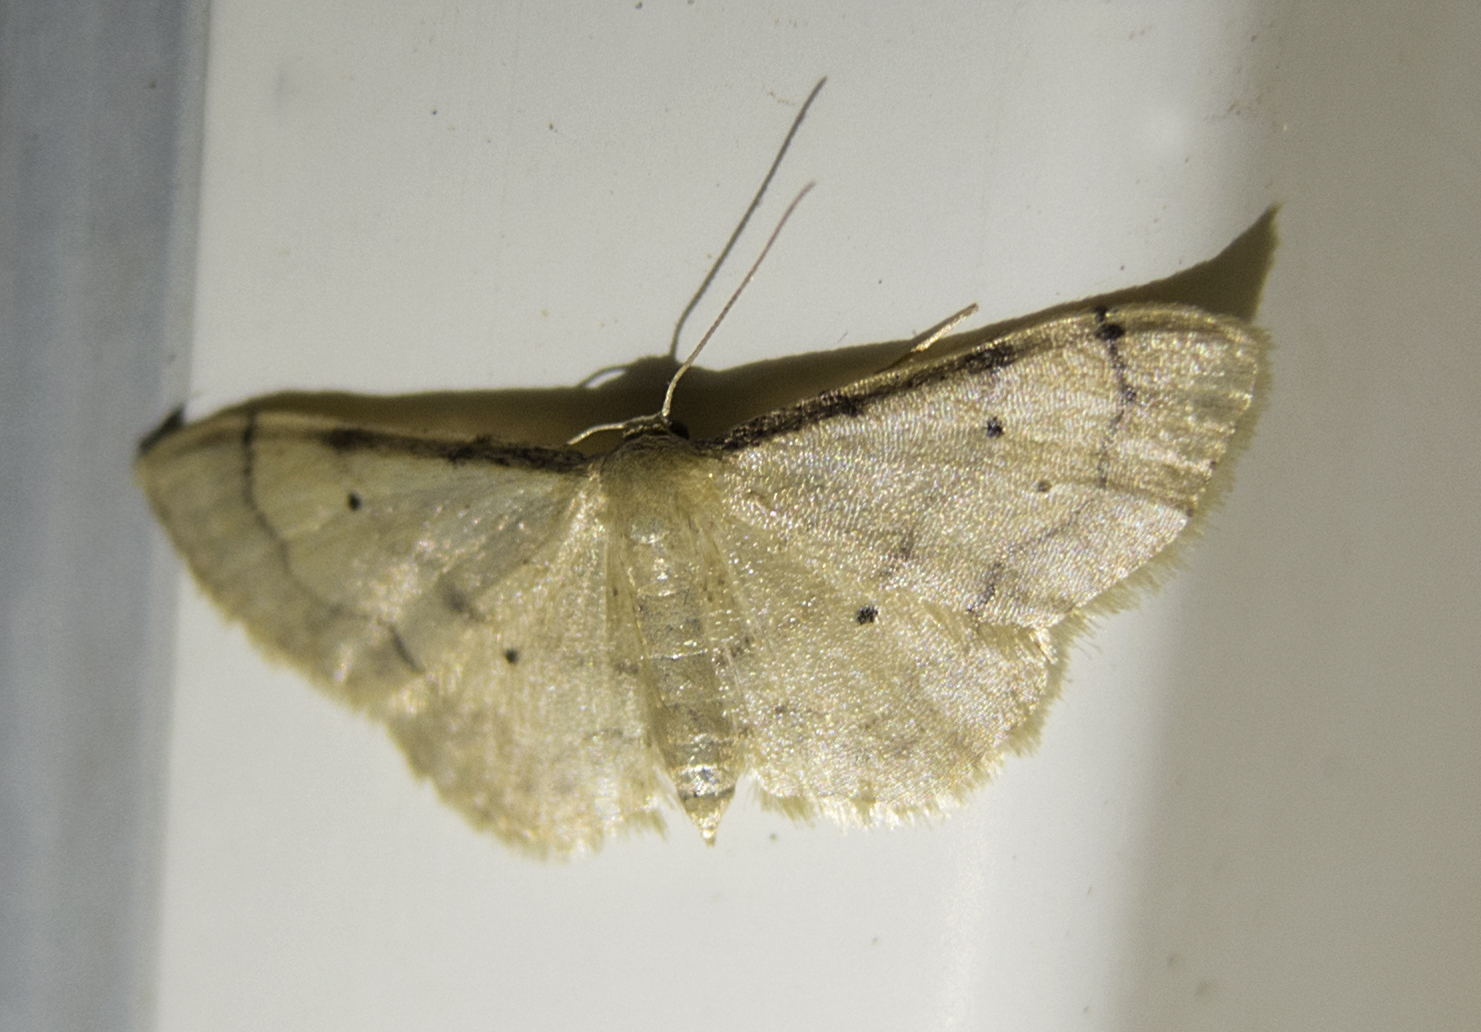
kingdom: Animalia
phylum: Arthropoda
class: Insecta
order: Lepidoptera
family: Geometridae
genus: Idaea
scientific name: Idaea politaria
